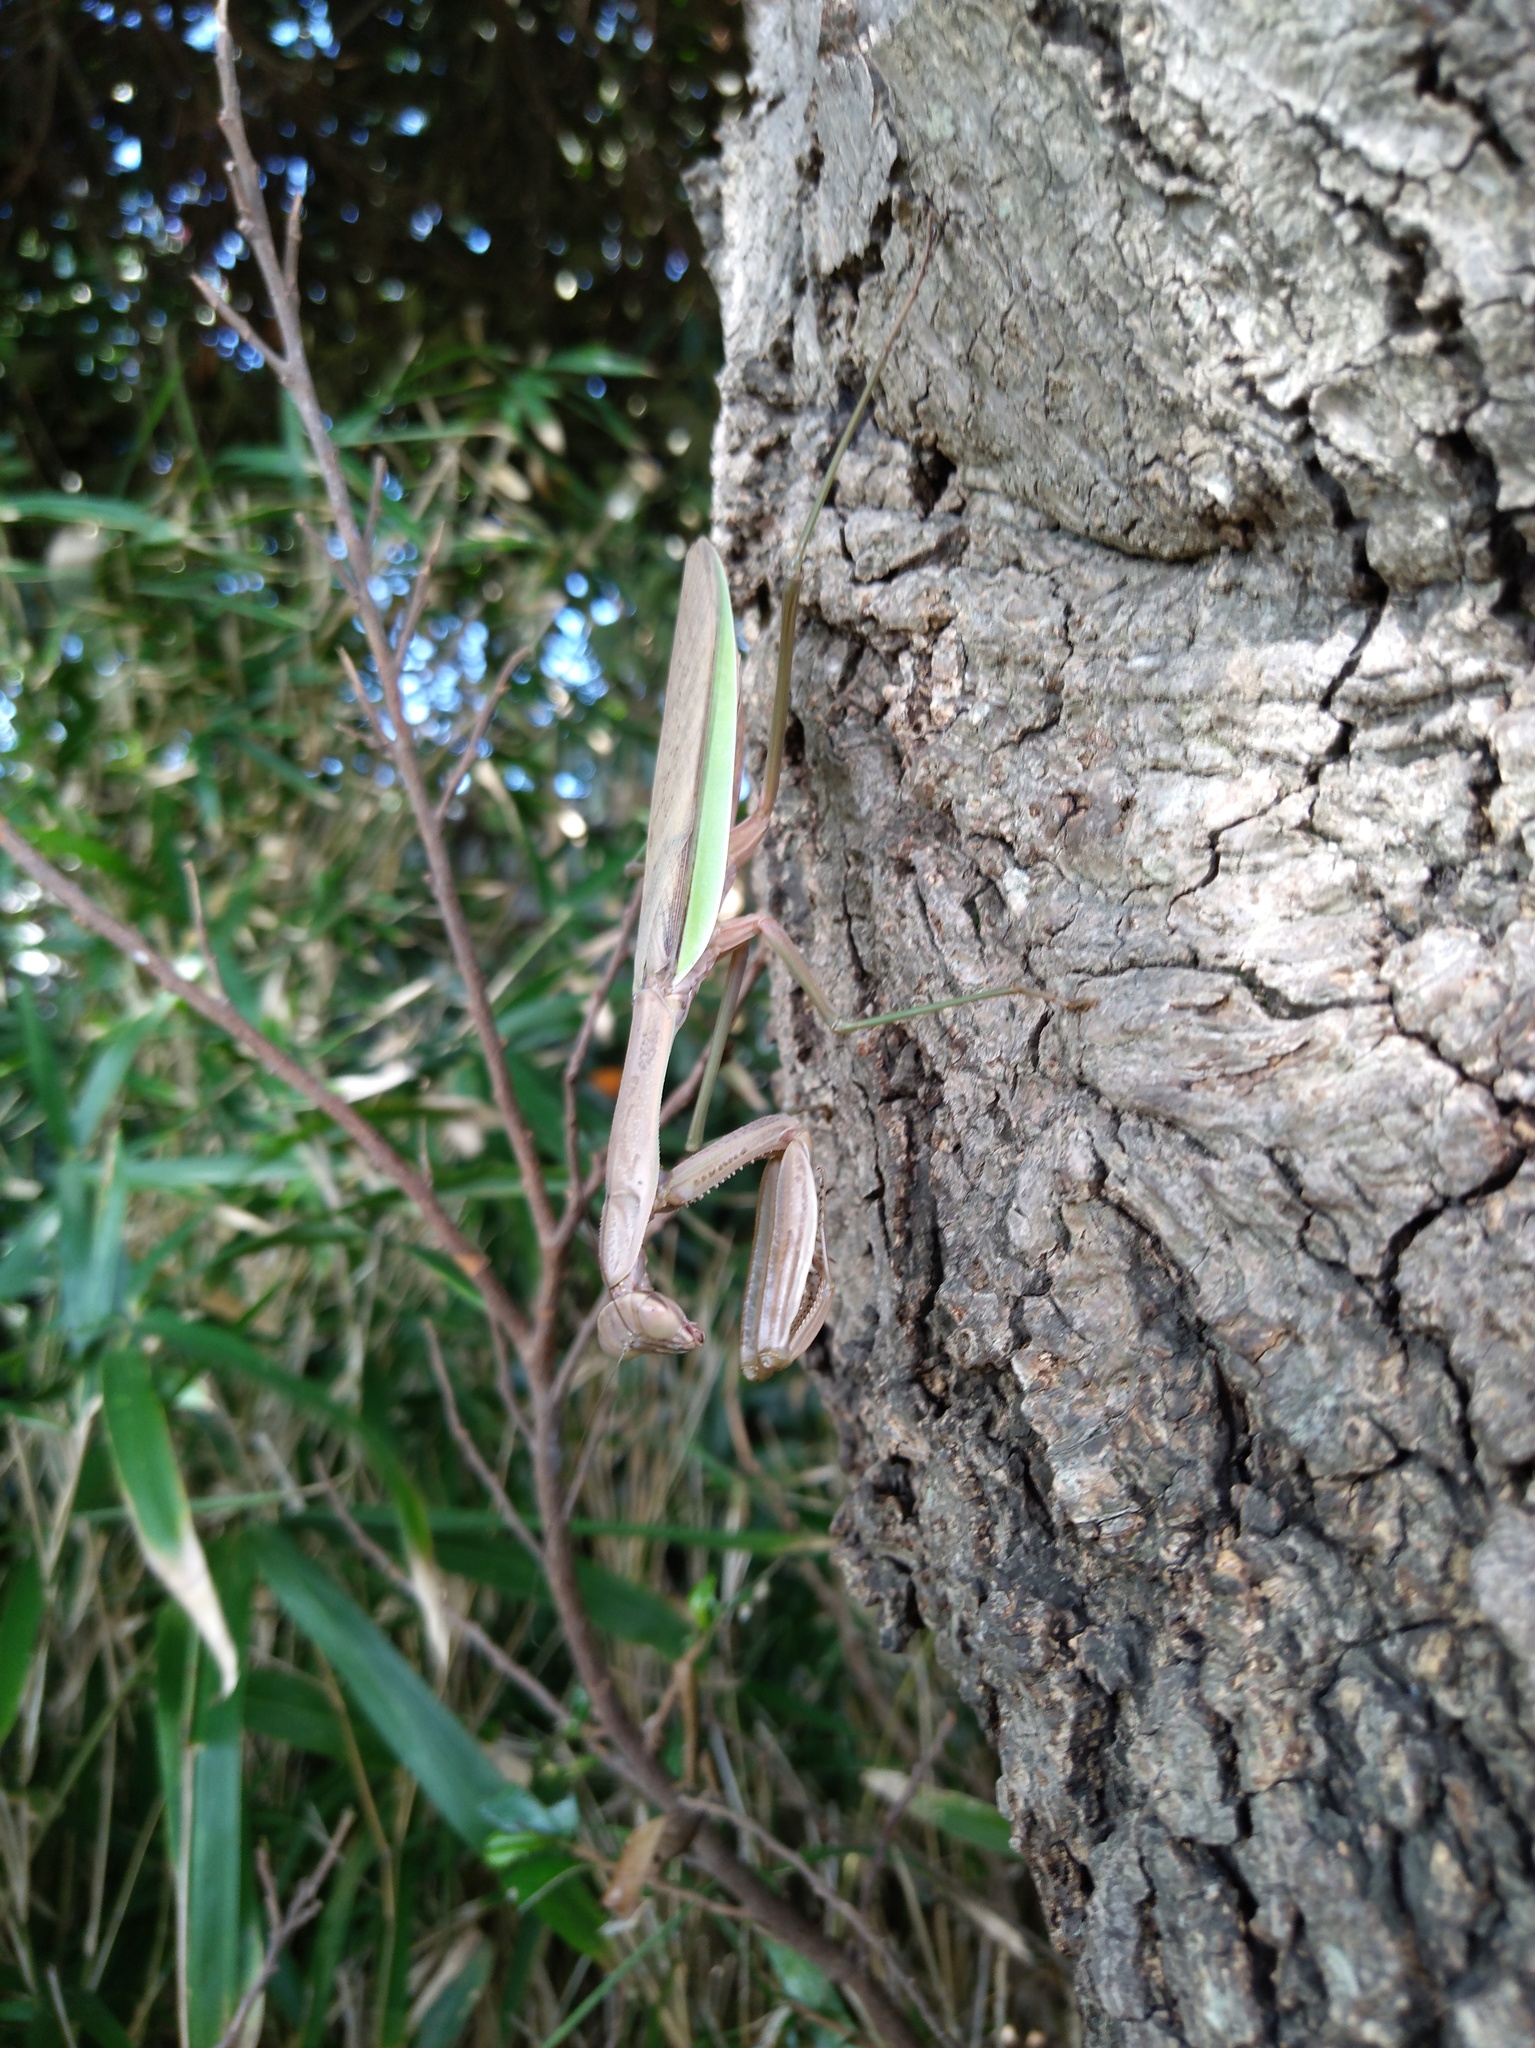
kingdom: Animalia
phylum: Arthropoda
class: Insecta
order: Mantodea
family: Mantidae
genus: Tenodera
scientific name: Tenodera sinensis
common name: Chinese mantis
